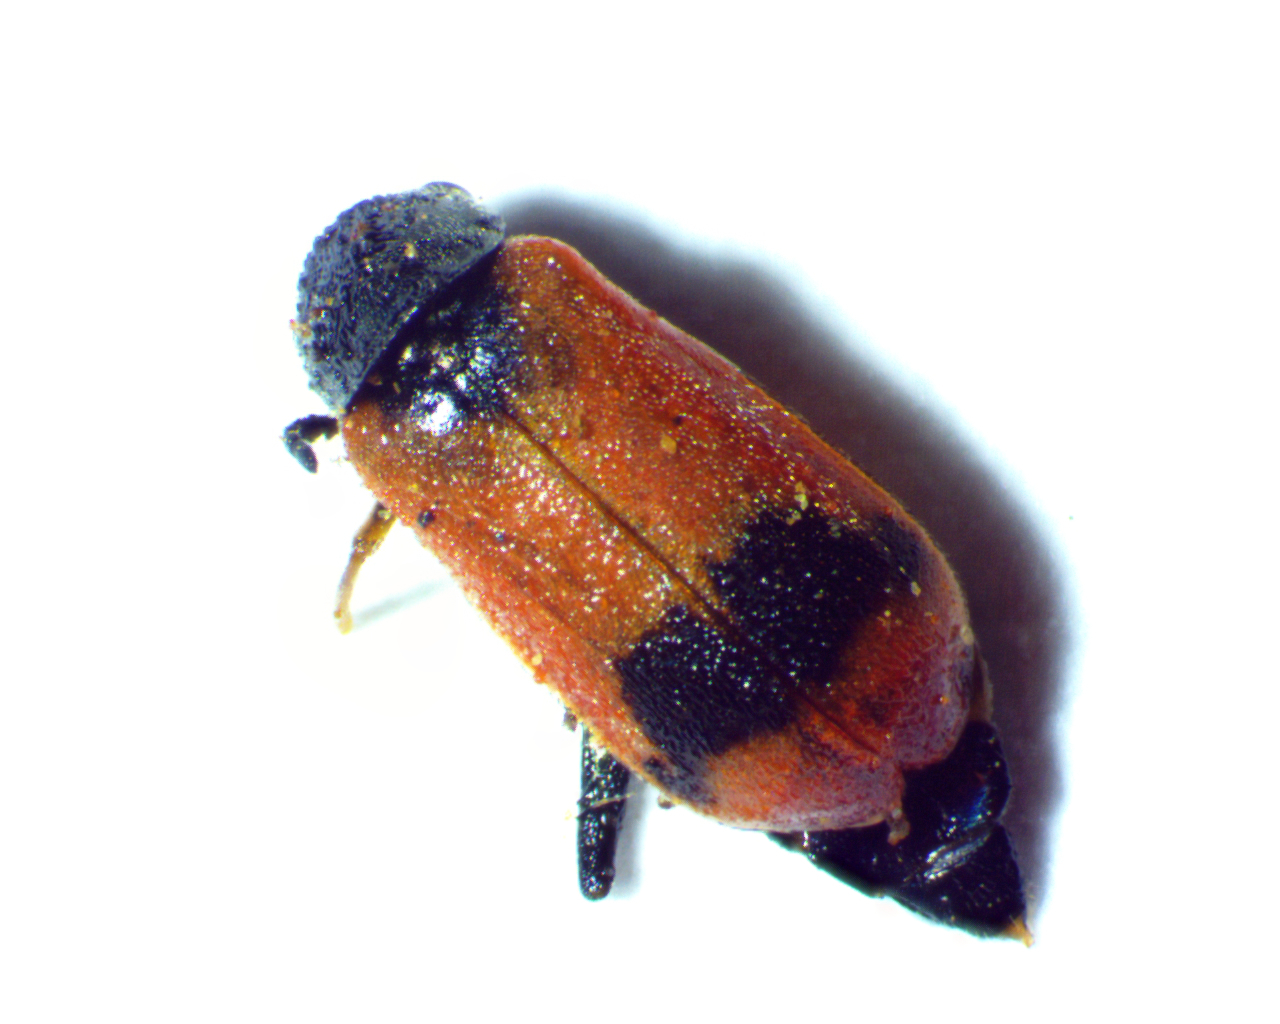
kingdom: Animalia
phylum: Arthropoda
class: Insecta
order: Coleoptera
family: Melyridae
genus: Anthocomus
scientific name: Anthocomus equestris
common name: Black-banded soft-winged flower beetle
